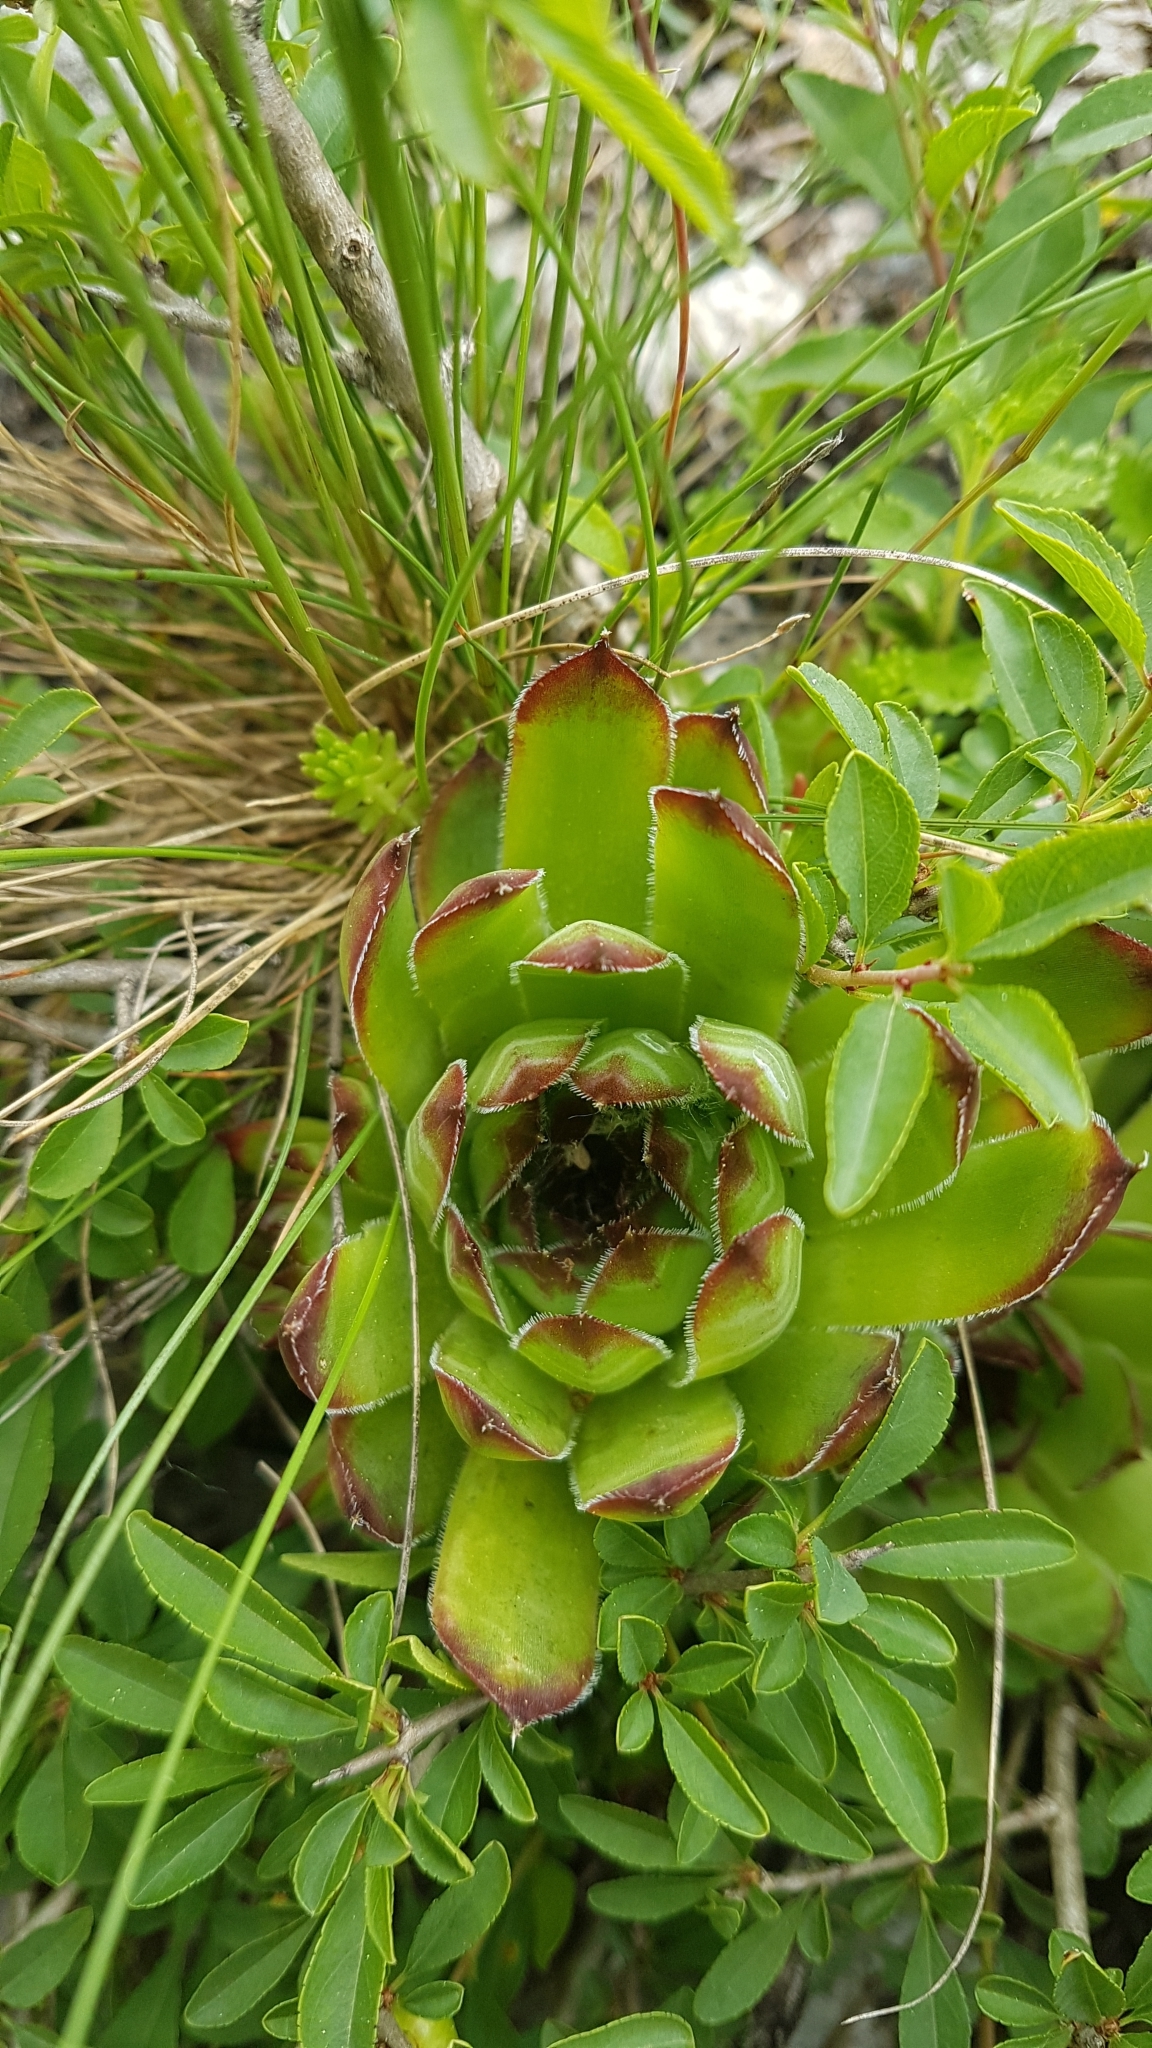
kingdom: Plantae
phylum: Tracheophyta
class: Magnoliopsida
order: Saxifragales
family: Crassulaceae
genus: Sempervivum
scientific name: Sempervivum tectorum
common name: House-leek
